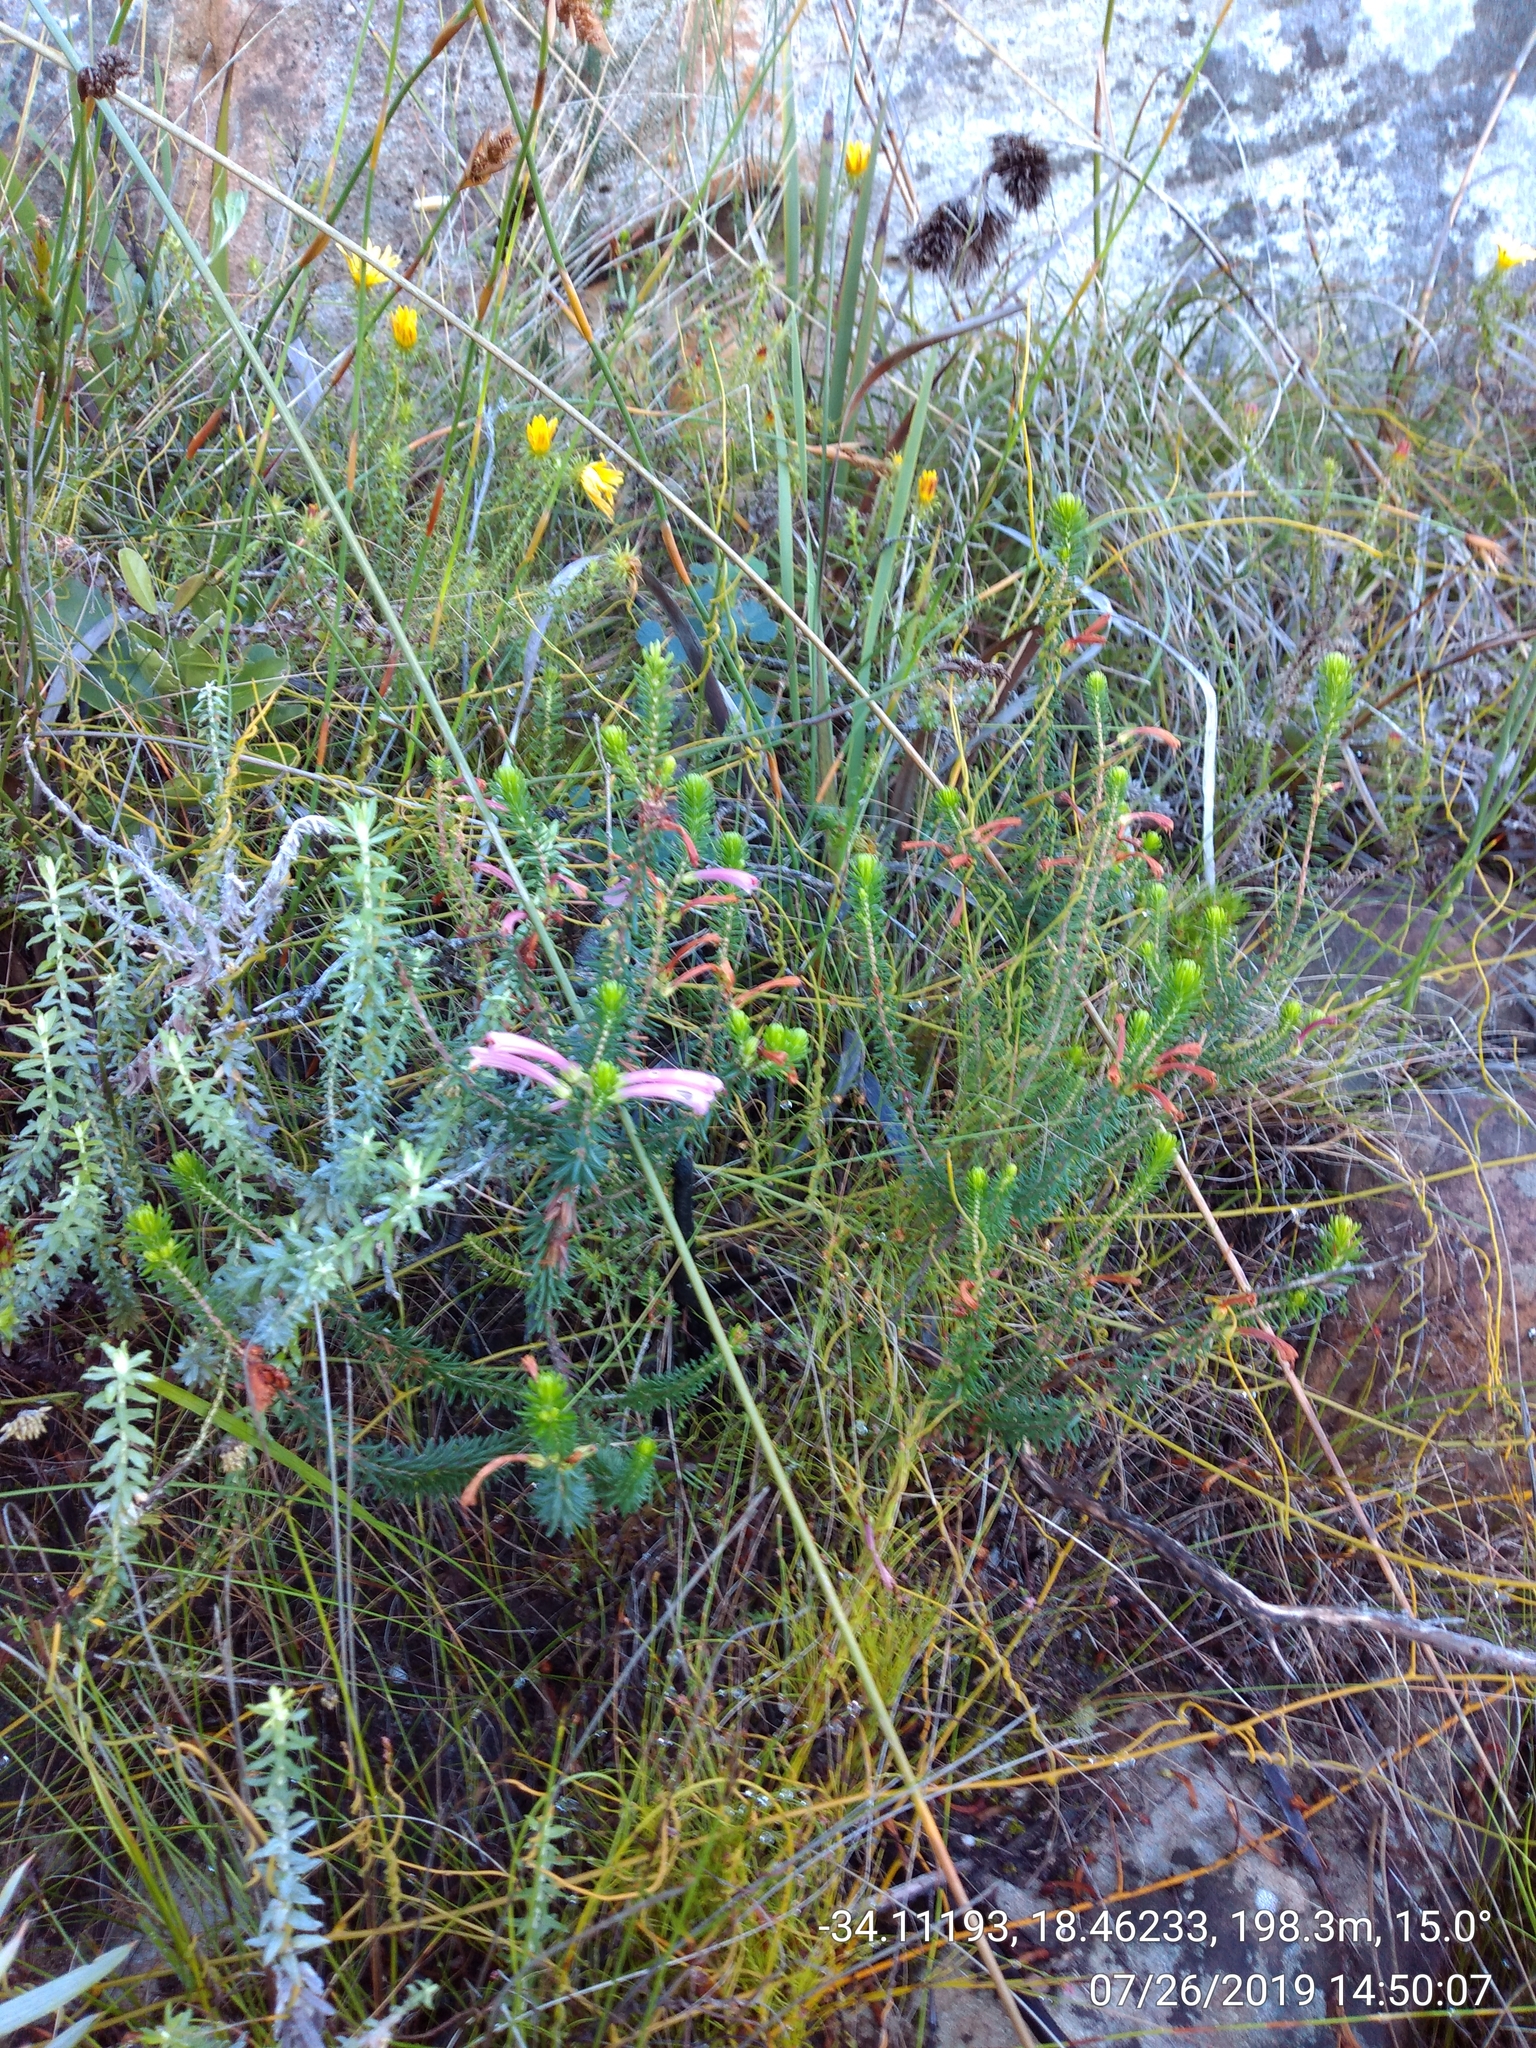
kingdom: Plantae
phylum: Tracheophyta
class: Magnoliopsida
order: Ericales
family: Ericaceae
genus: Erica
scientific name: Erica abietina
